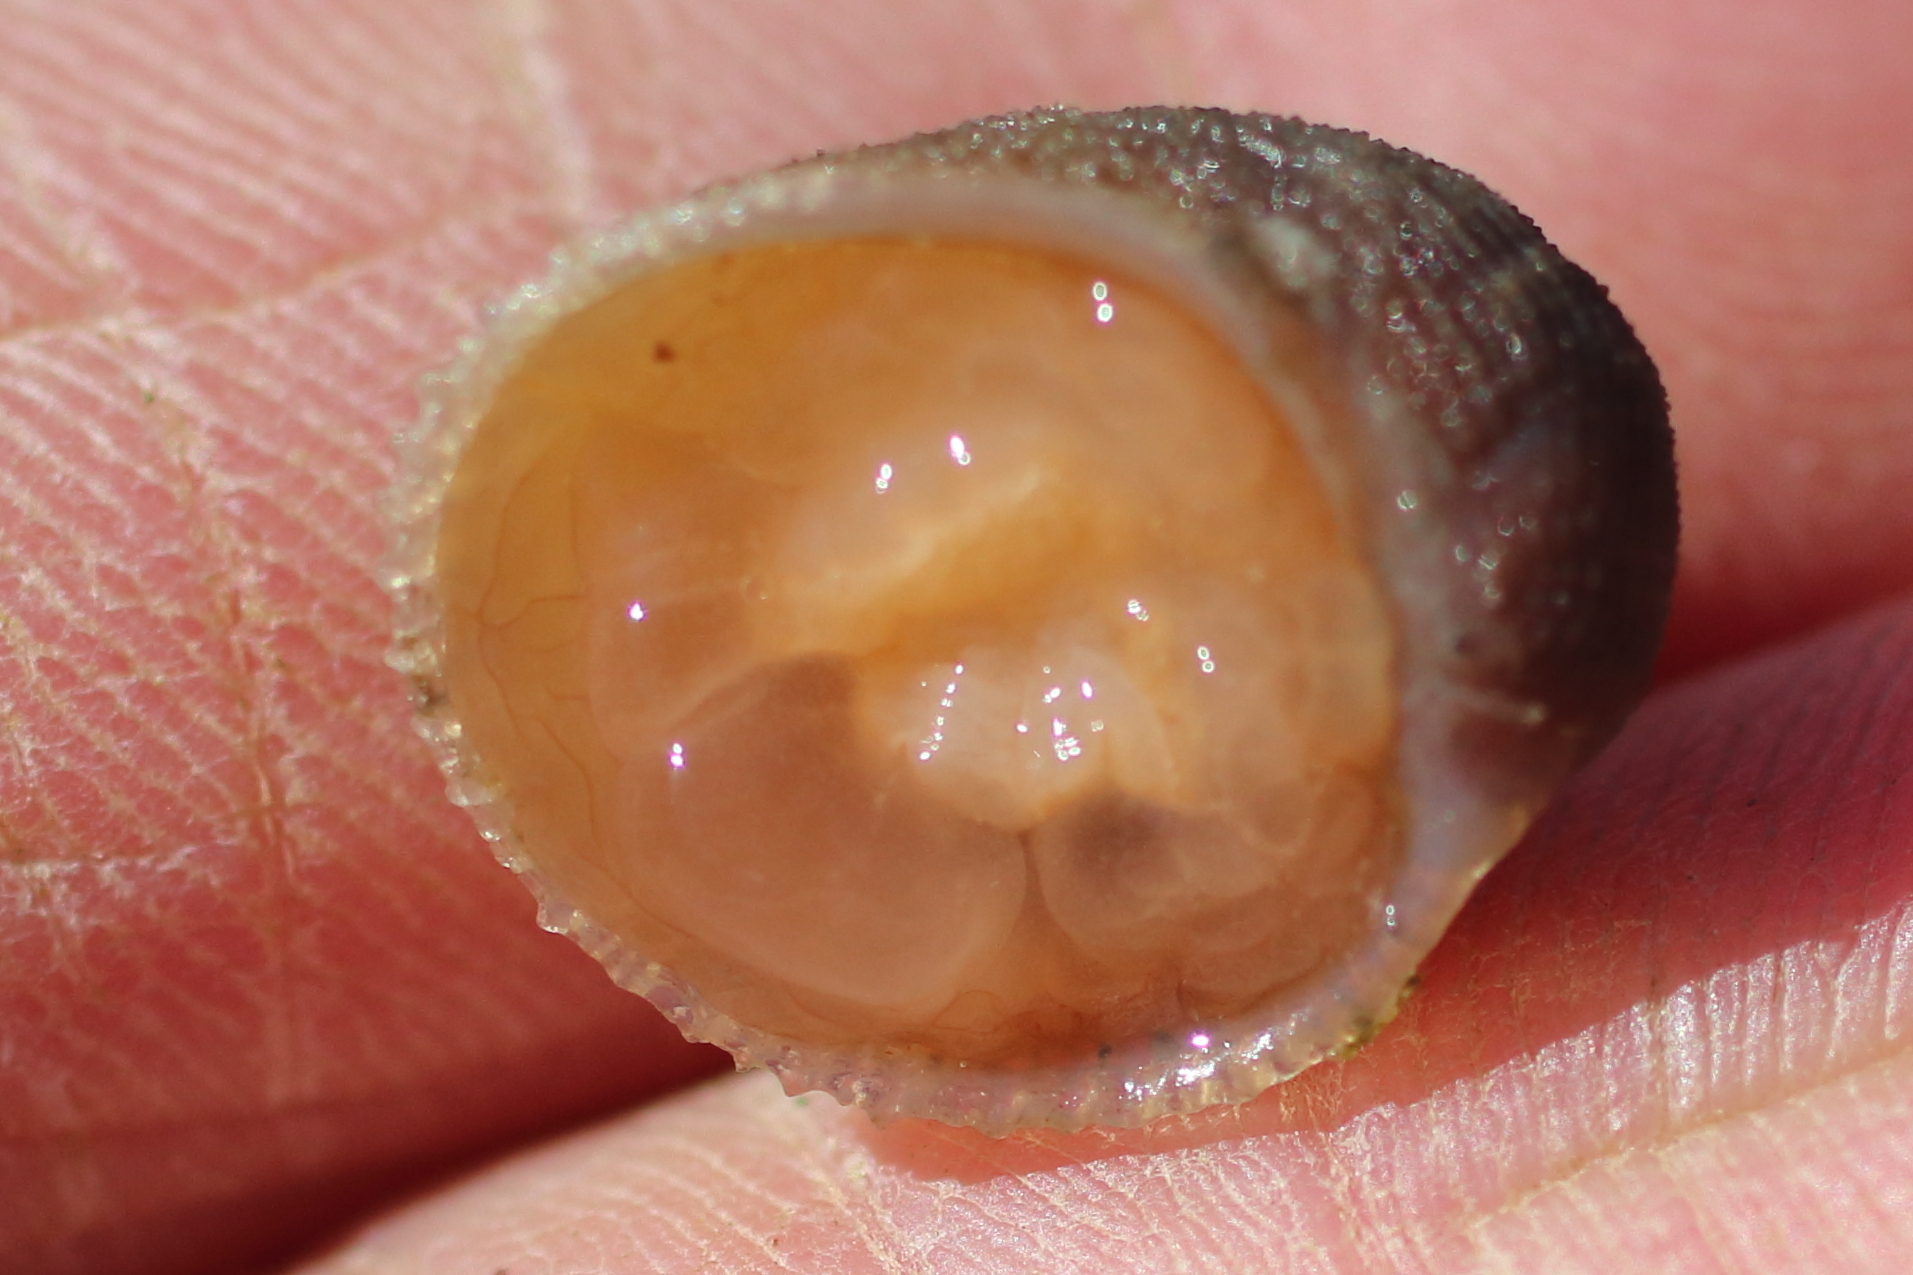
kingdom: Animalia
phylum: Mollusca
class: Gastropoda
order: Littorinimorpha
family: Velutinidae
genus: Velutina
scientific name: Velutina velutina
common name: Smooth lamellaria
